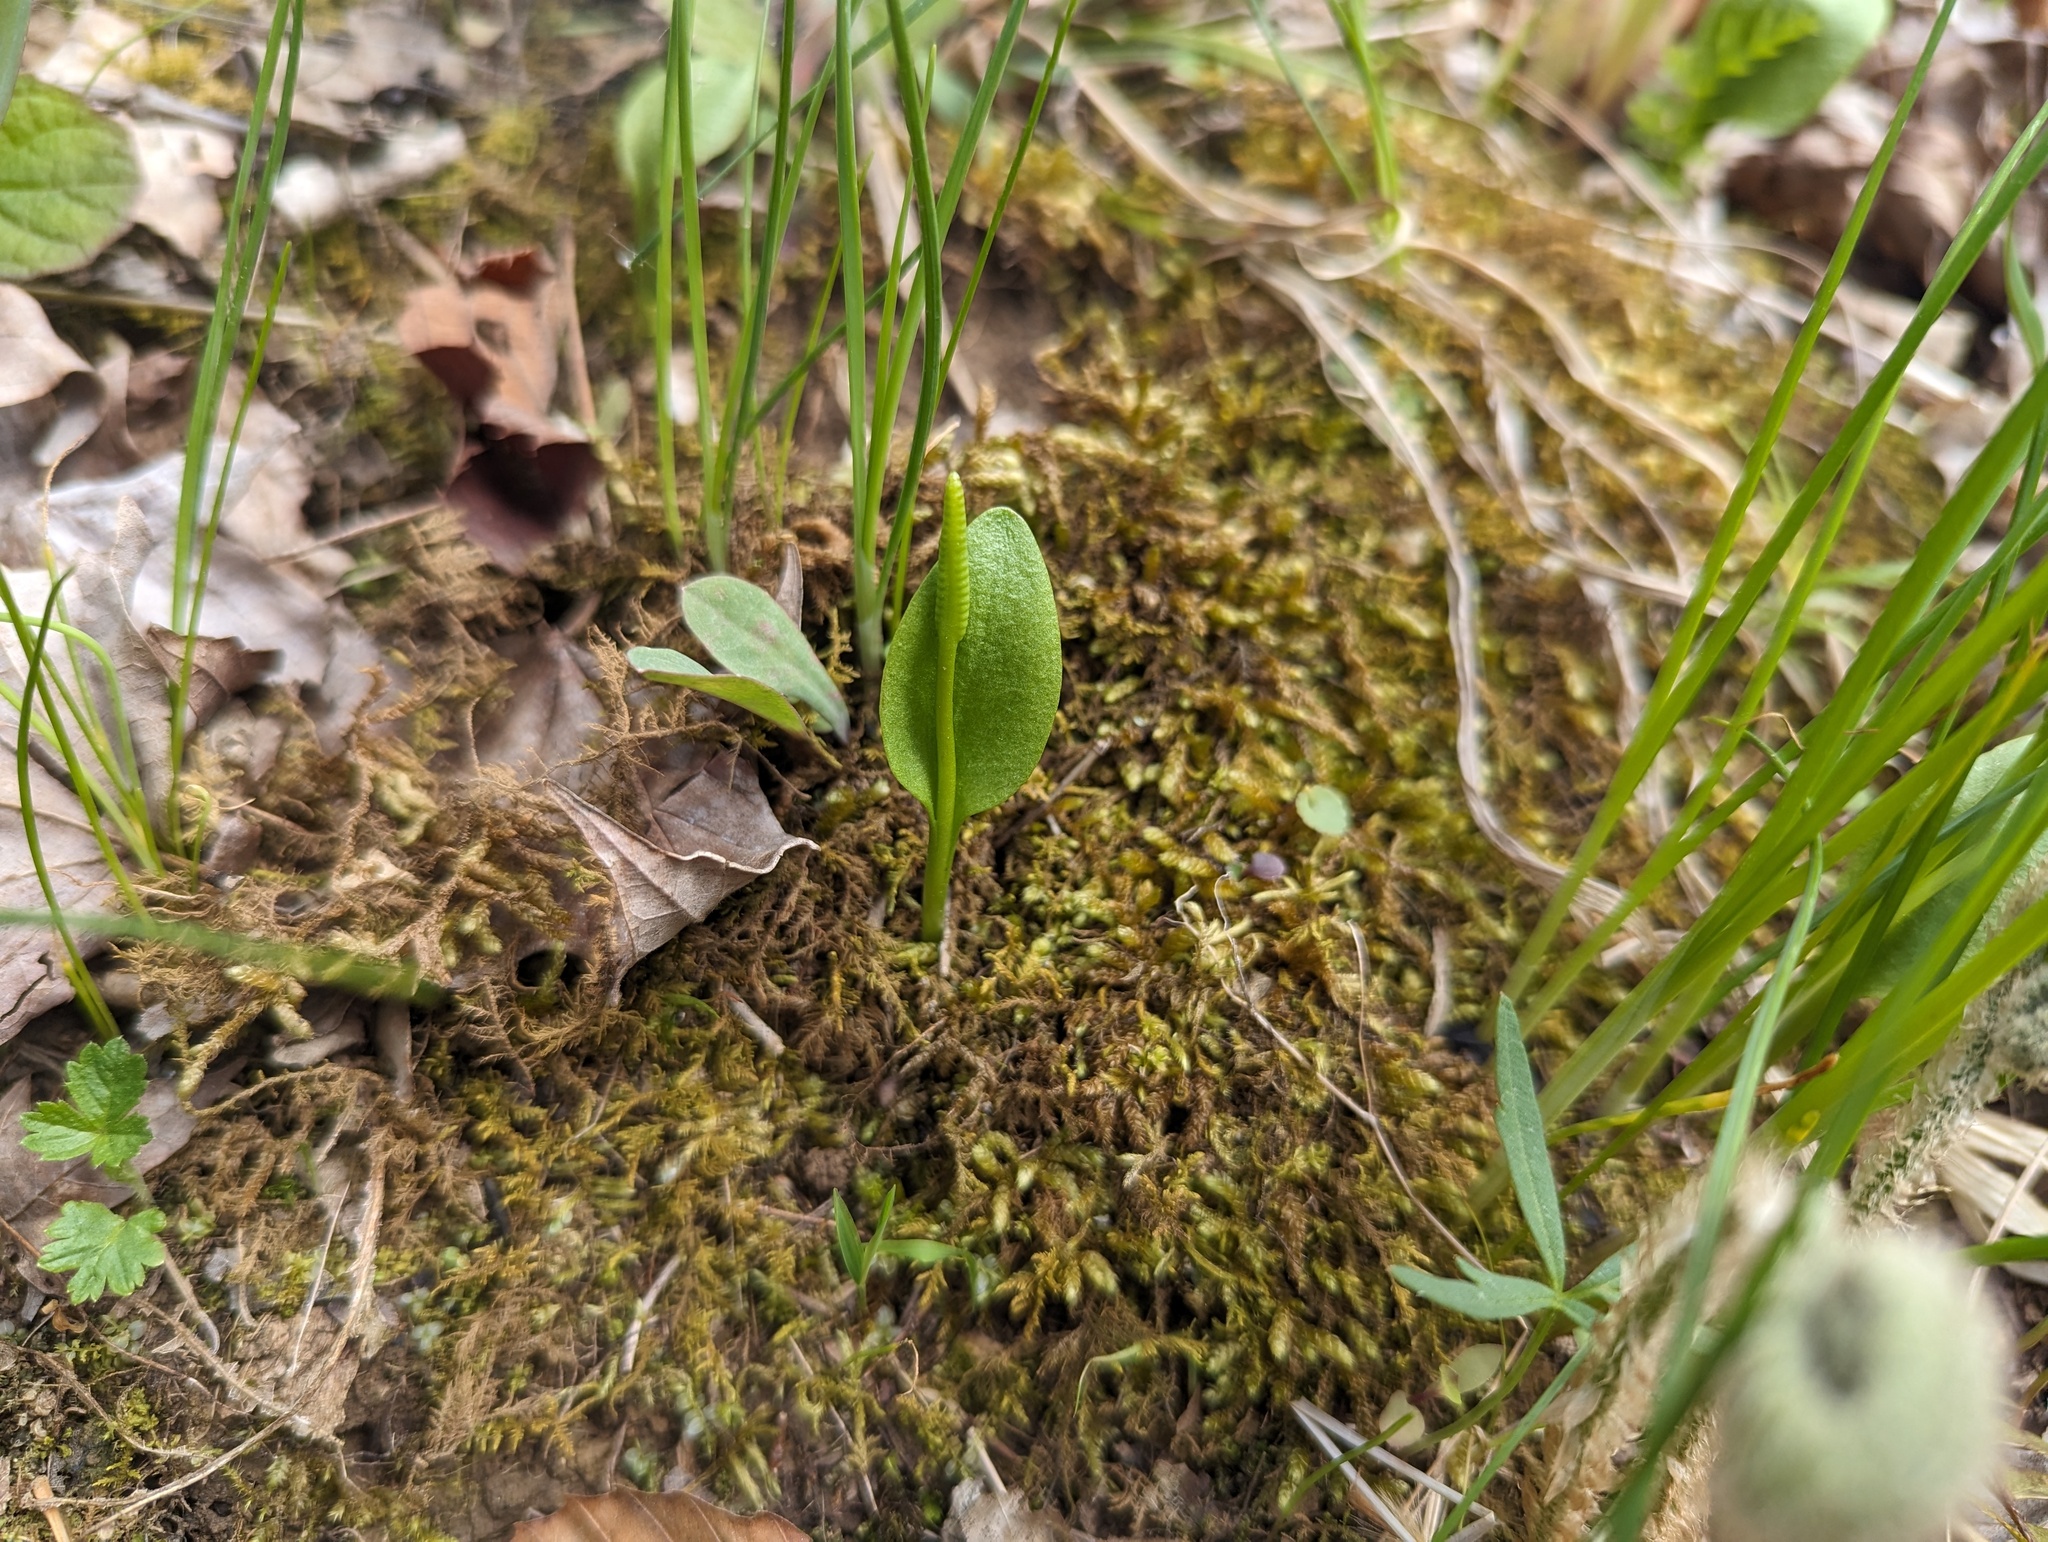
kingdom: Plantae
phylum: Tracheophyta
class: Polypodiopsida
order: Ophioglossales
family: Ophioglossaceae
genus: Ophioglossum
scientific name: Ophioglossum vulgatum
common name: Adder's-tongue
